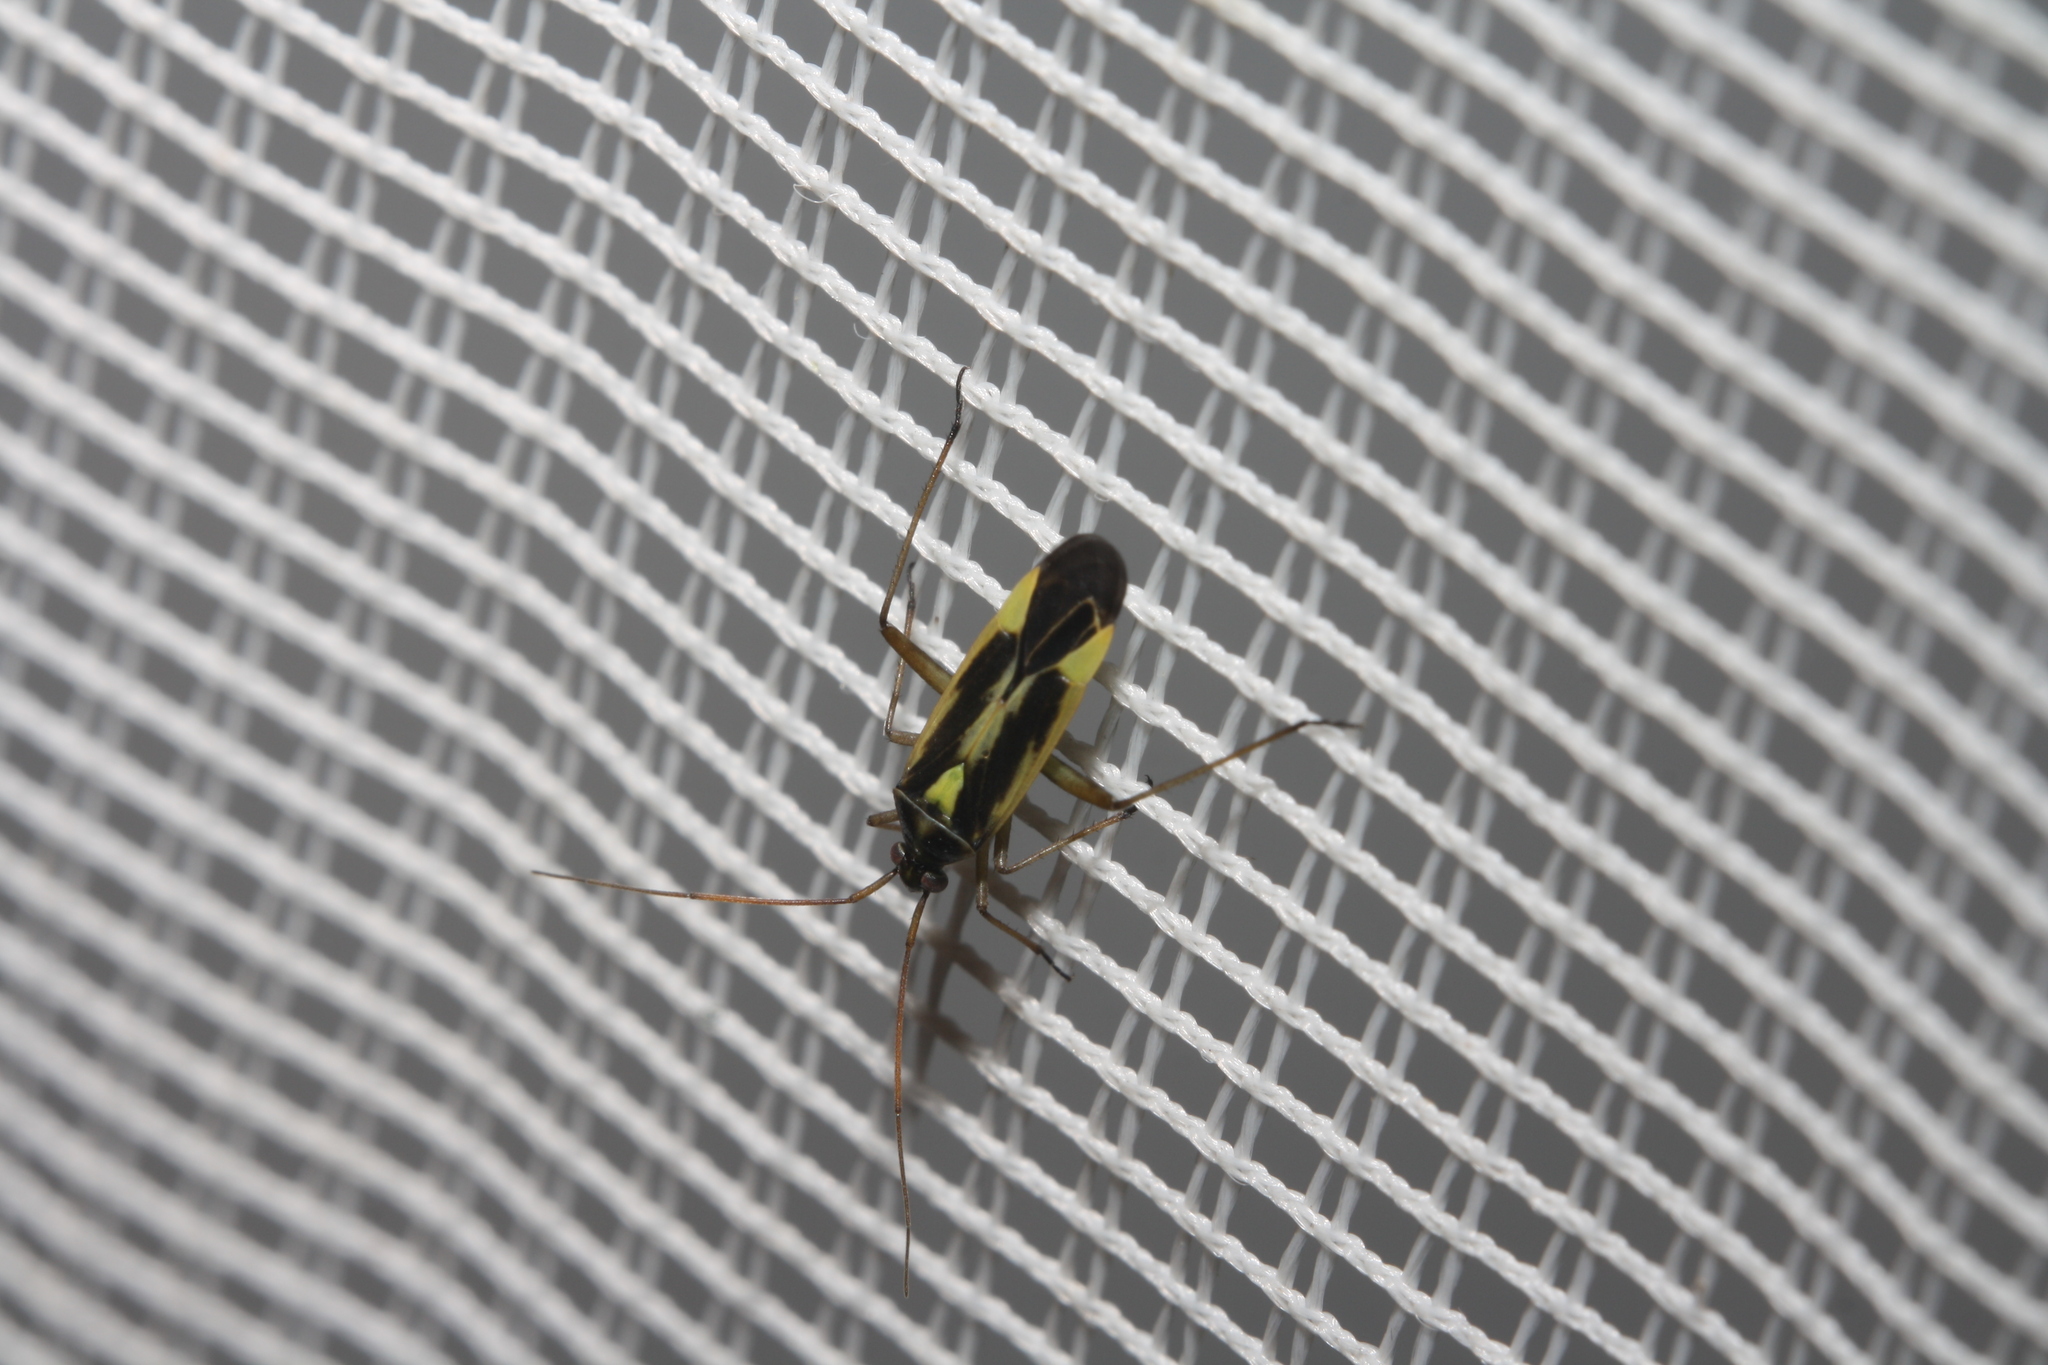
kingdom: Animalia
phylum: Arthropoda
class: Insecta
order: Hemiptera
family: Miridae
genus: Stenotus
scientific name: Stenotus binotatus
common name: Plant bug
